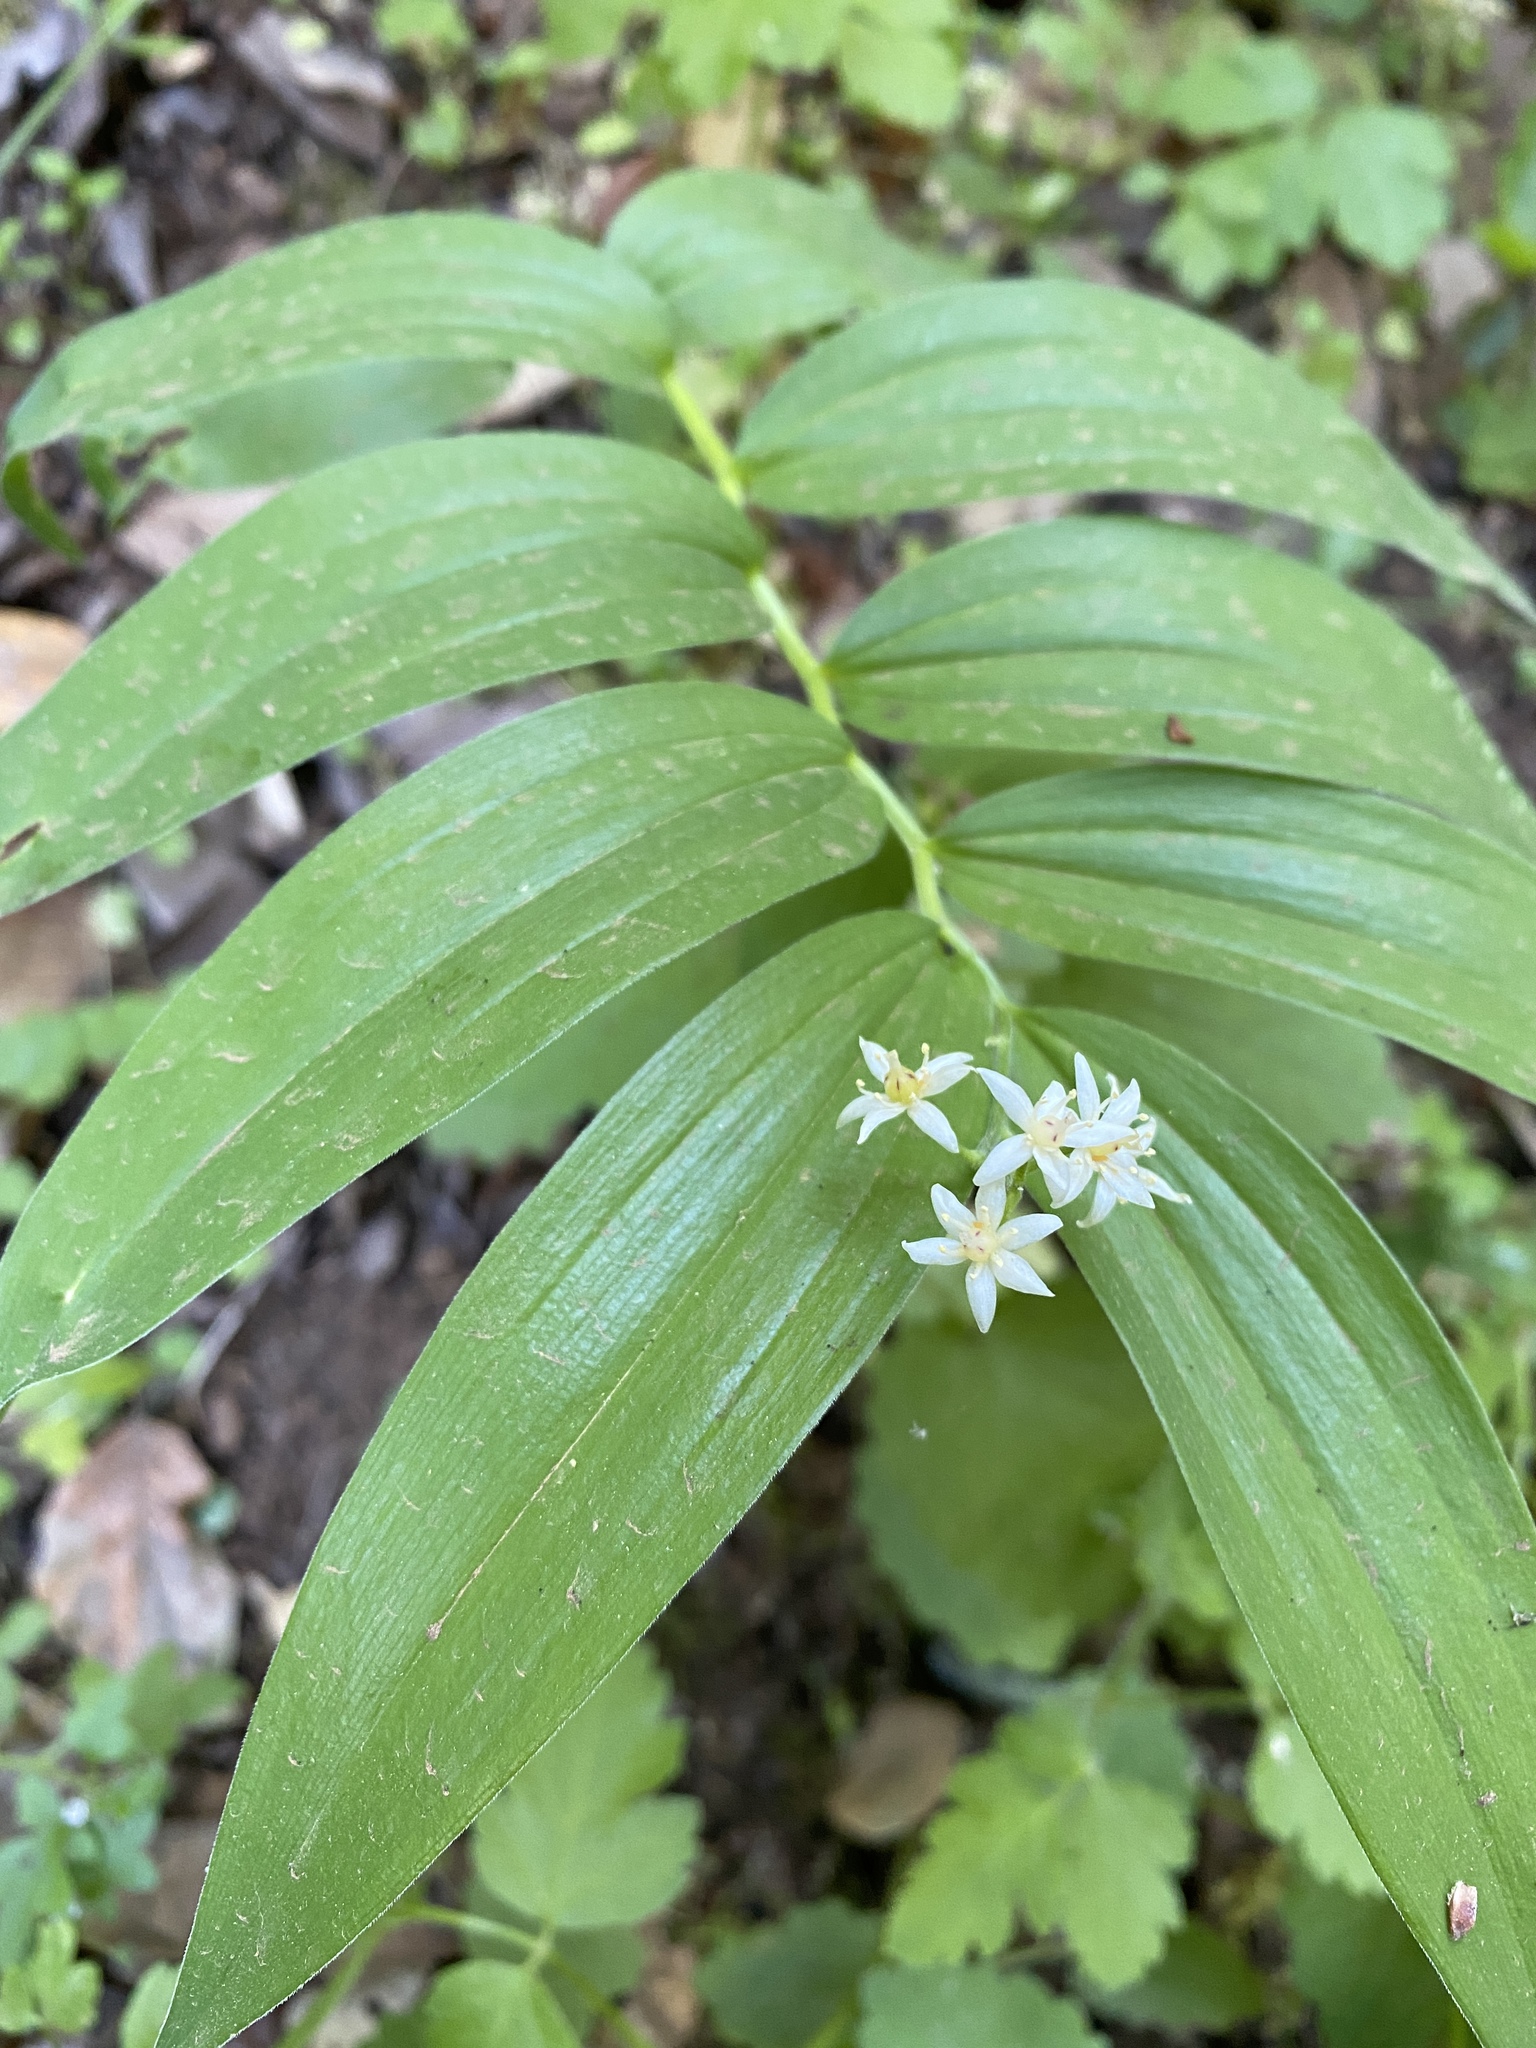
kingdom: Plantae
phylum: Tracheophyta
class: Liliopsida
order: Asparagales
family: Asparagaceae
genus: Maianthemum
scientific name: Maianthemum stellatum
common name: Little false solomon's seal
